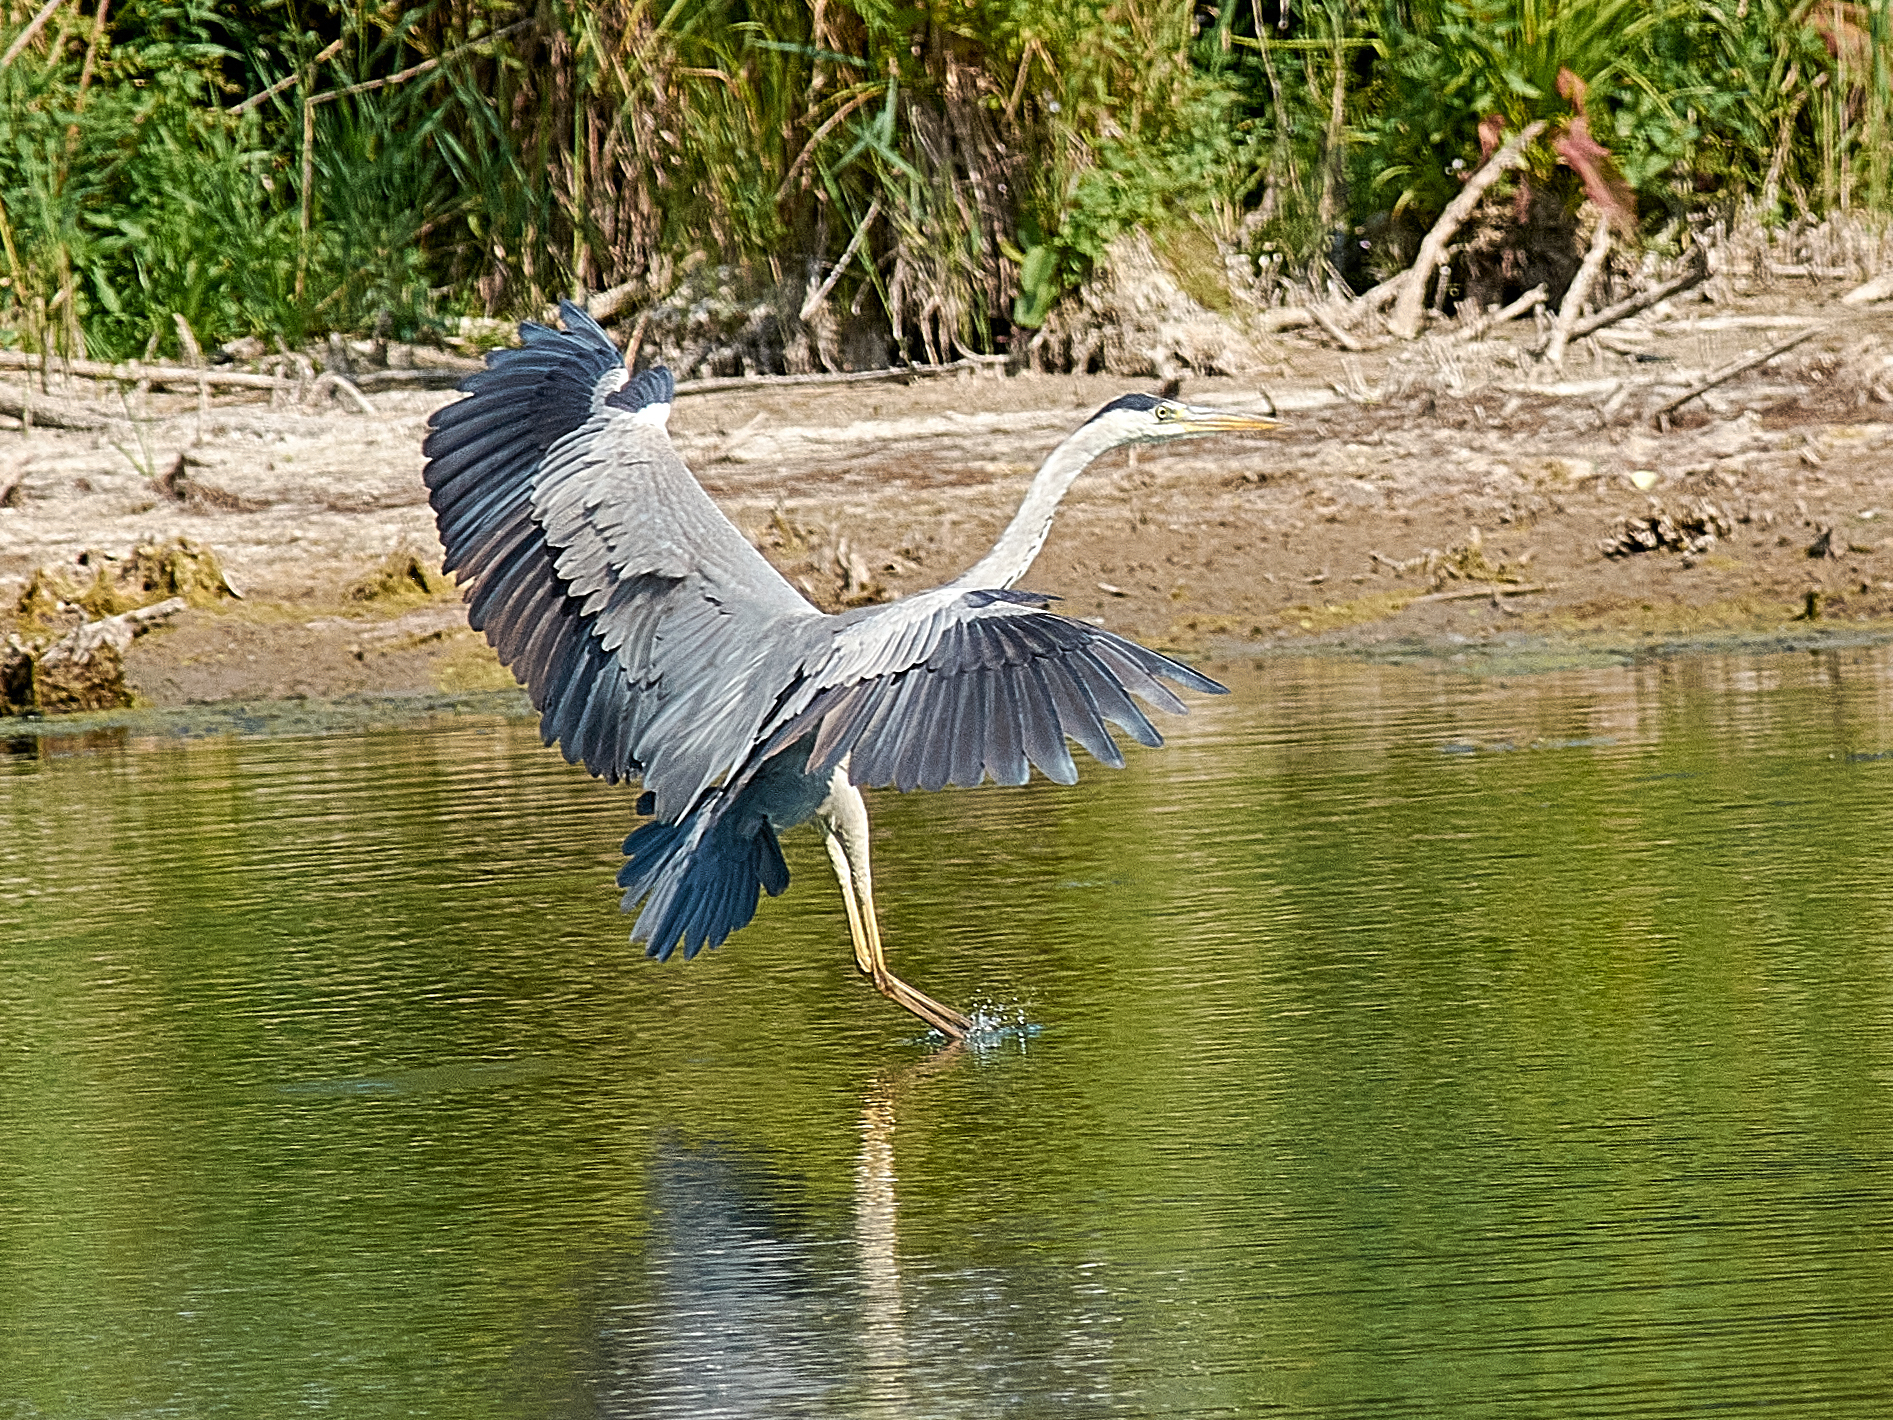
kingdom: Animalia
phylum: Chordata
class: Aves
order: Pelecaniformes
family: Ardeidae
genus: Ardea
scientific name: Ardea cinerea
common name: Grey heron
